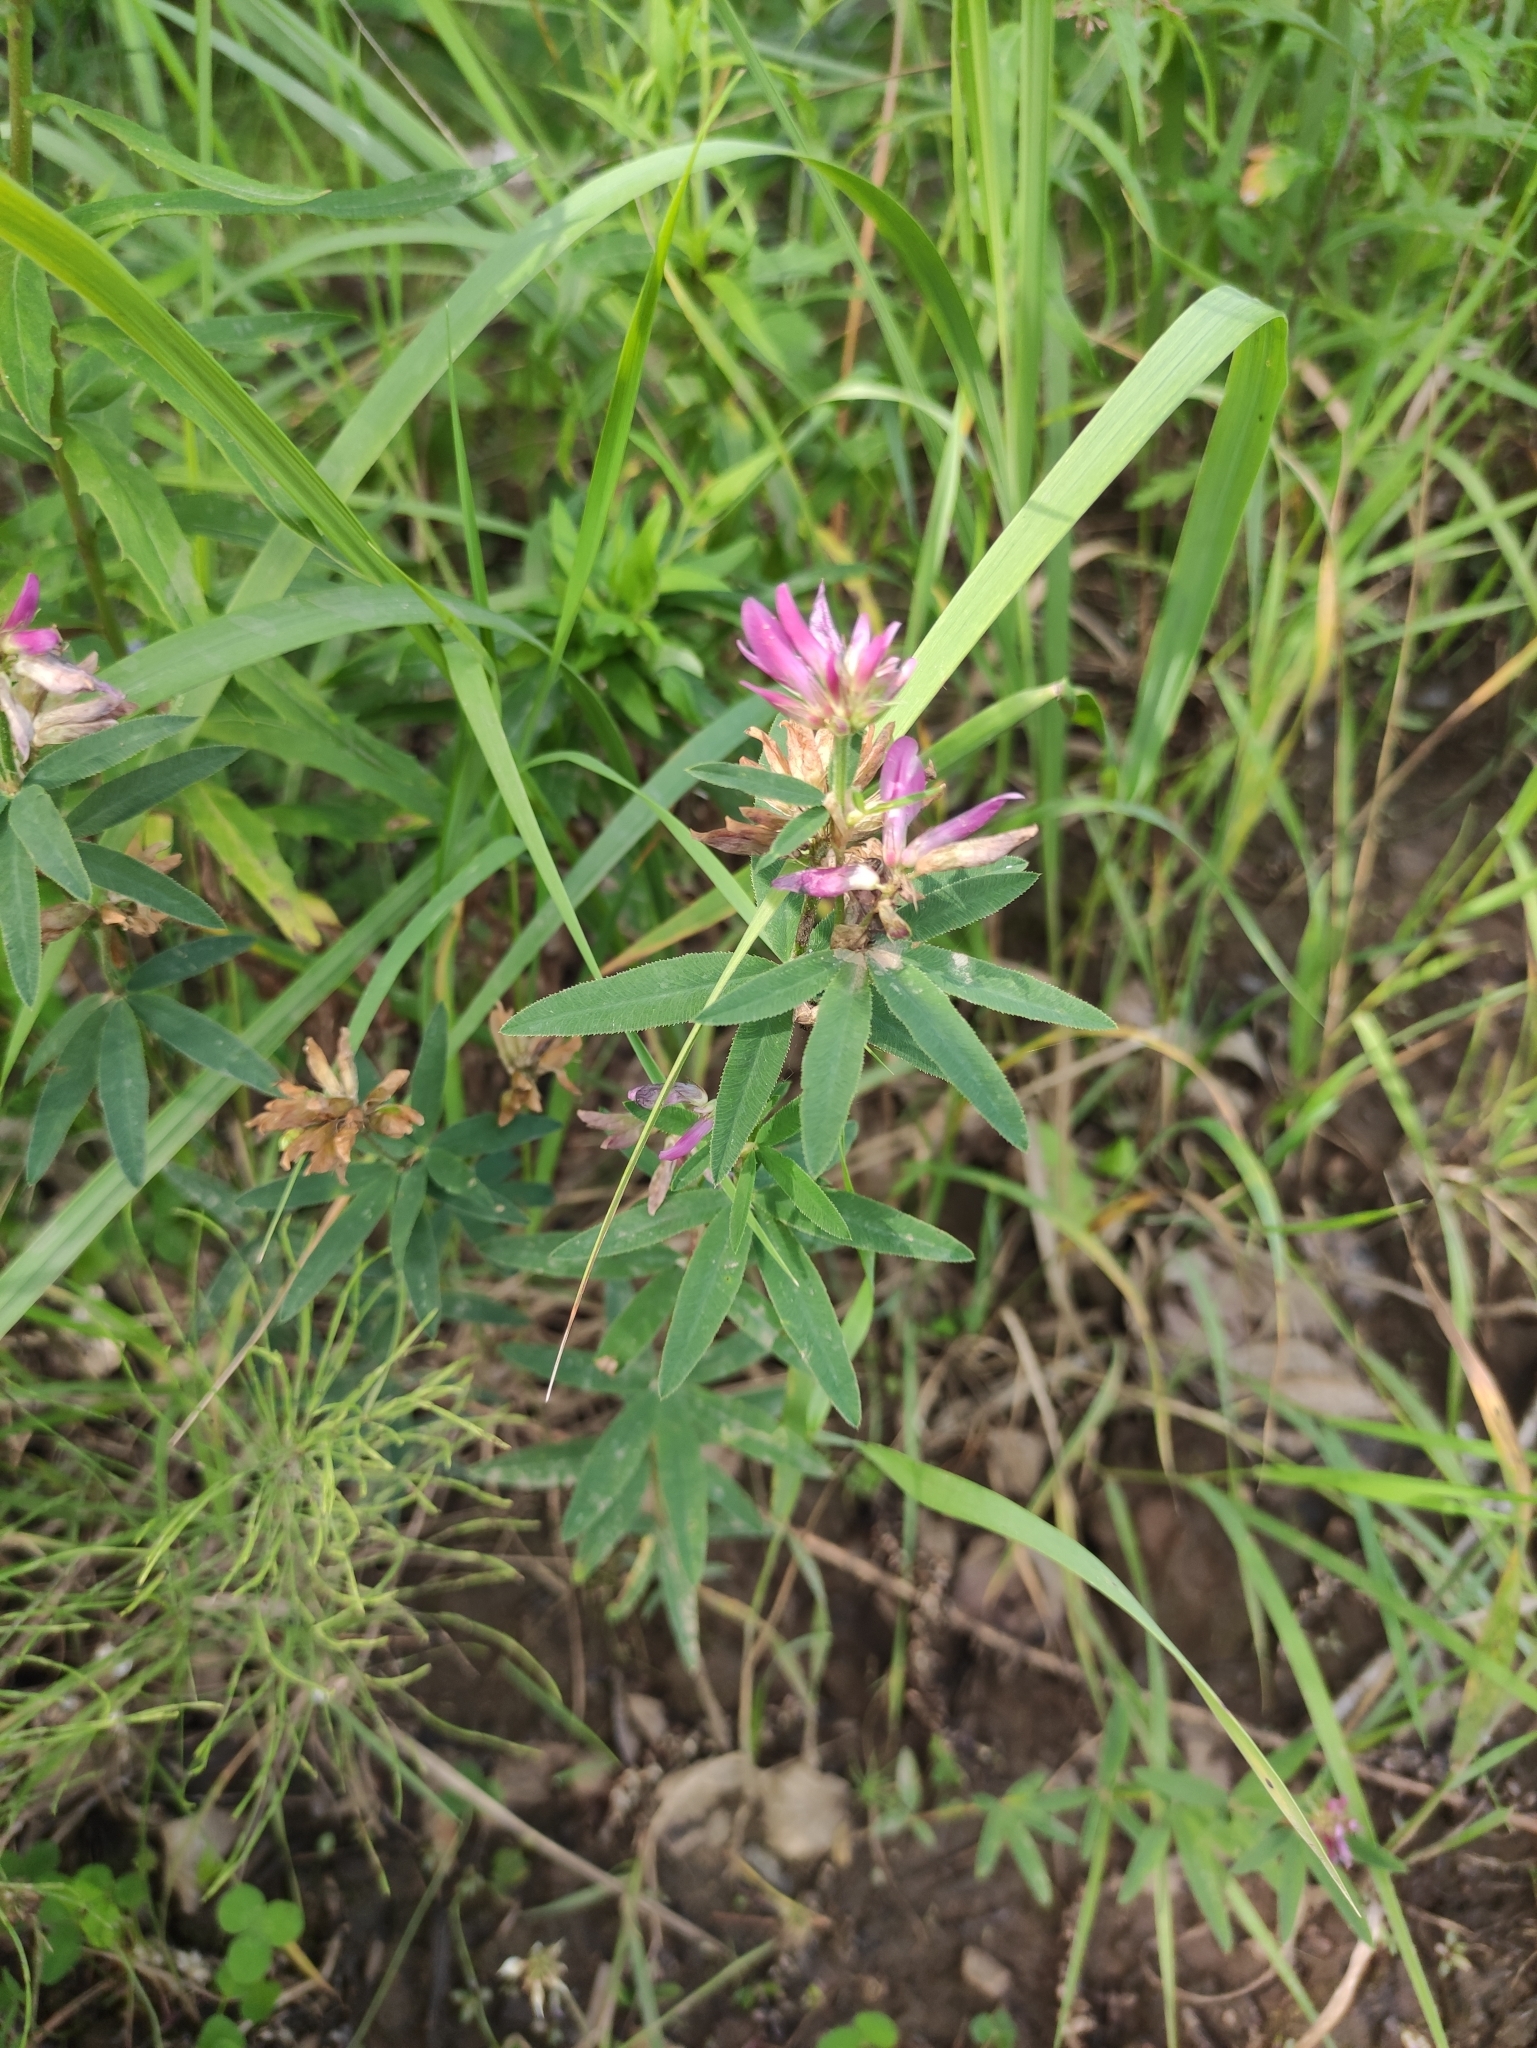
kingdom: Plantae
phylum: Tracheophyta
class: Magnoliopsida
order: Fabales
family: Fabaceae
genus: Trifolium
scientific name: Trifolium lupinaster
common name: Lupine clover
